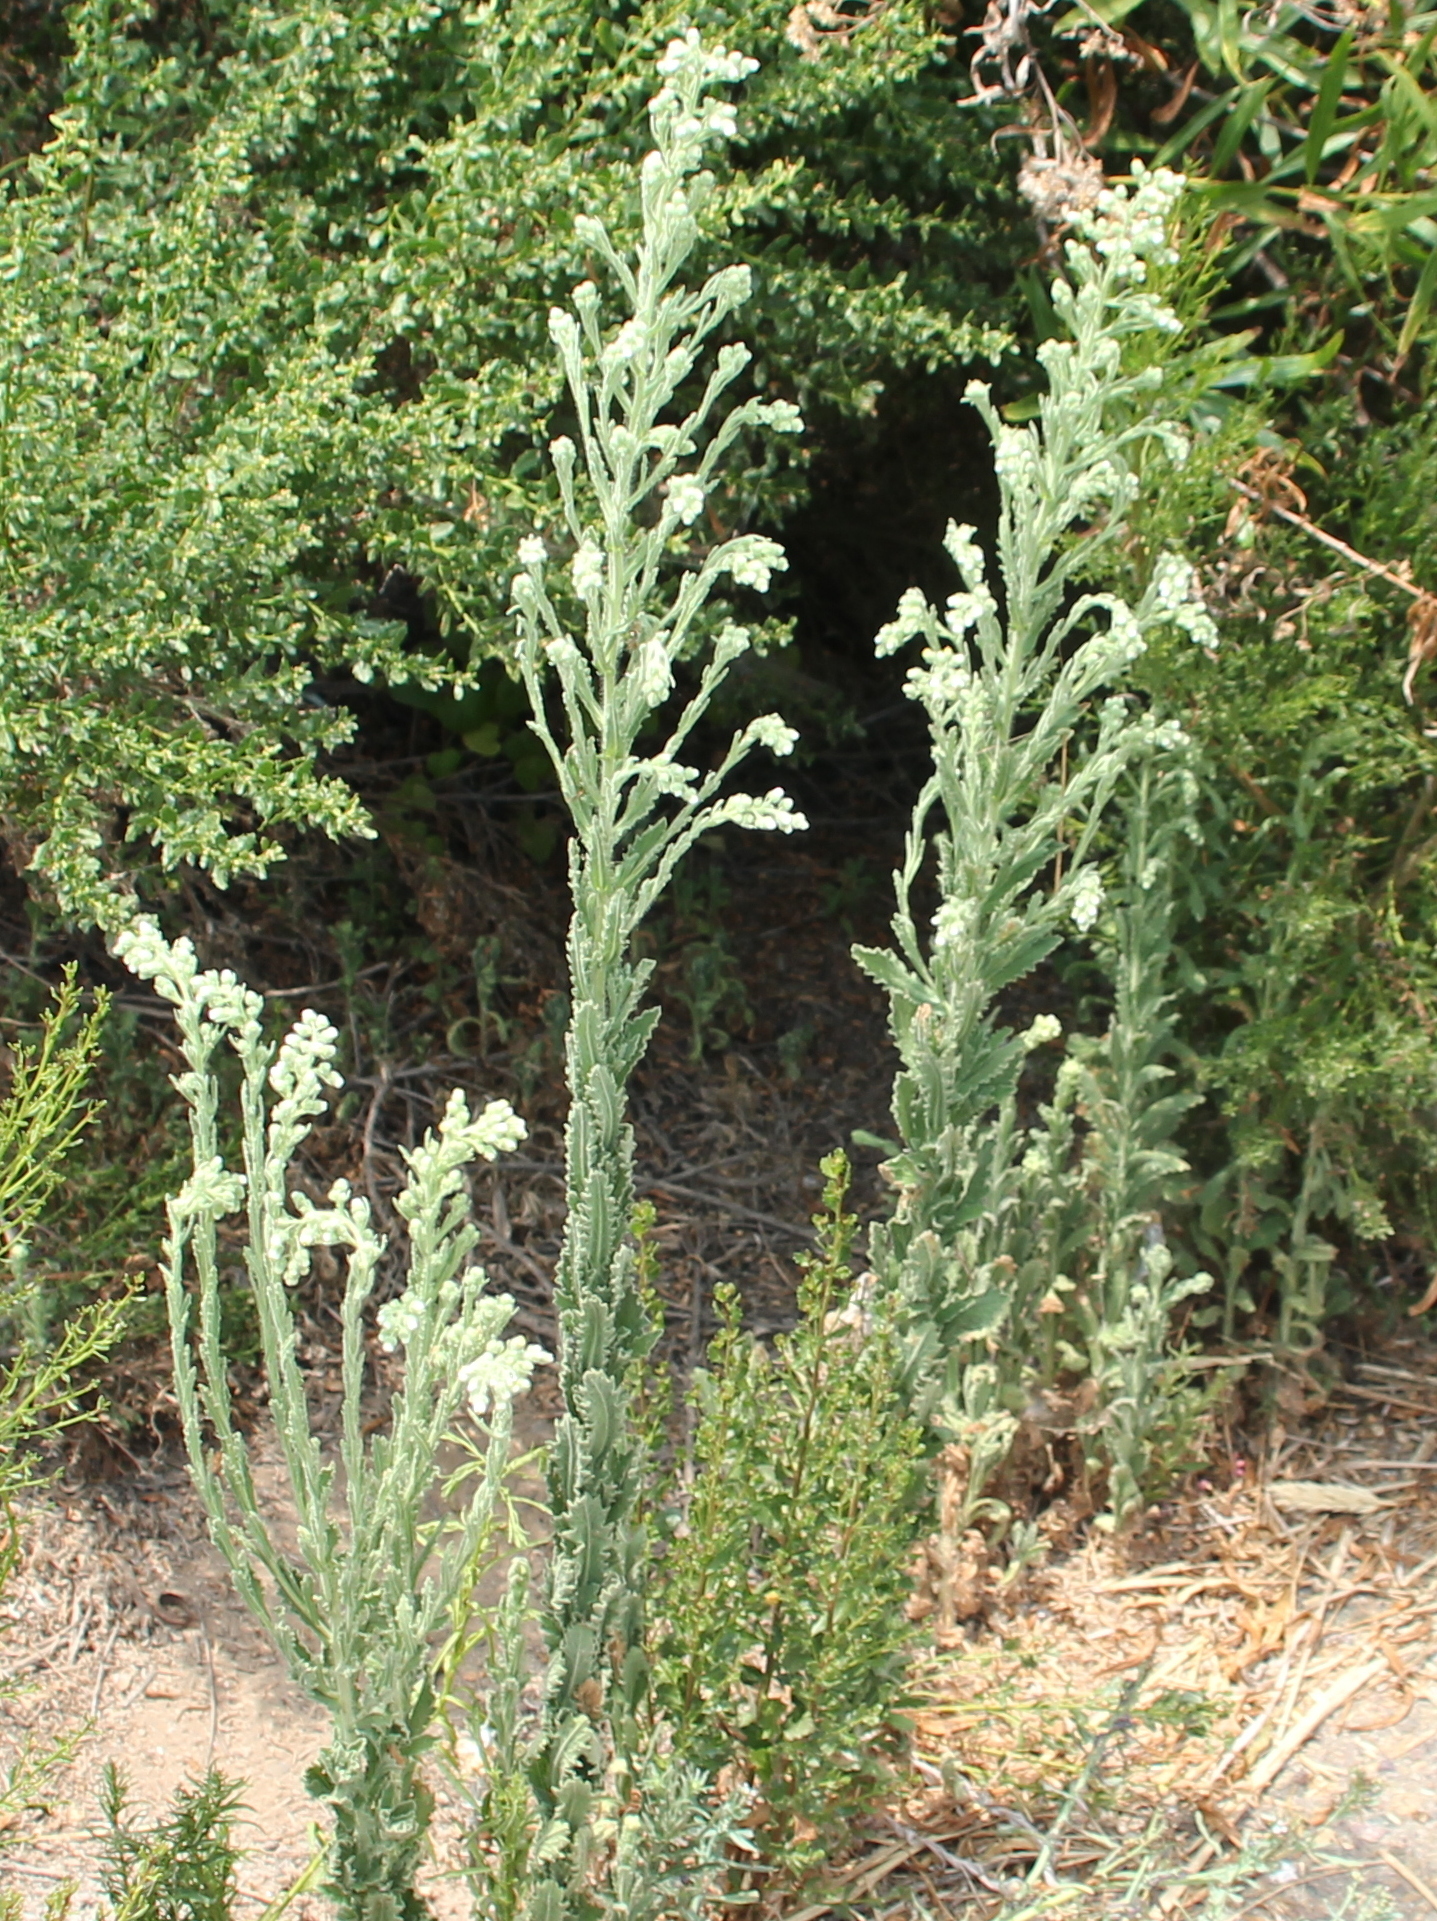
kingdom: Plantae
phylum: Tracheophyta
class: Magnoliopsida
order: Asterales
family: Asteraceae
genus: Laennecia
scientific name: Laennecia coulteri
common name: Coulter's woolwort
